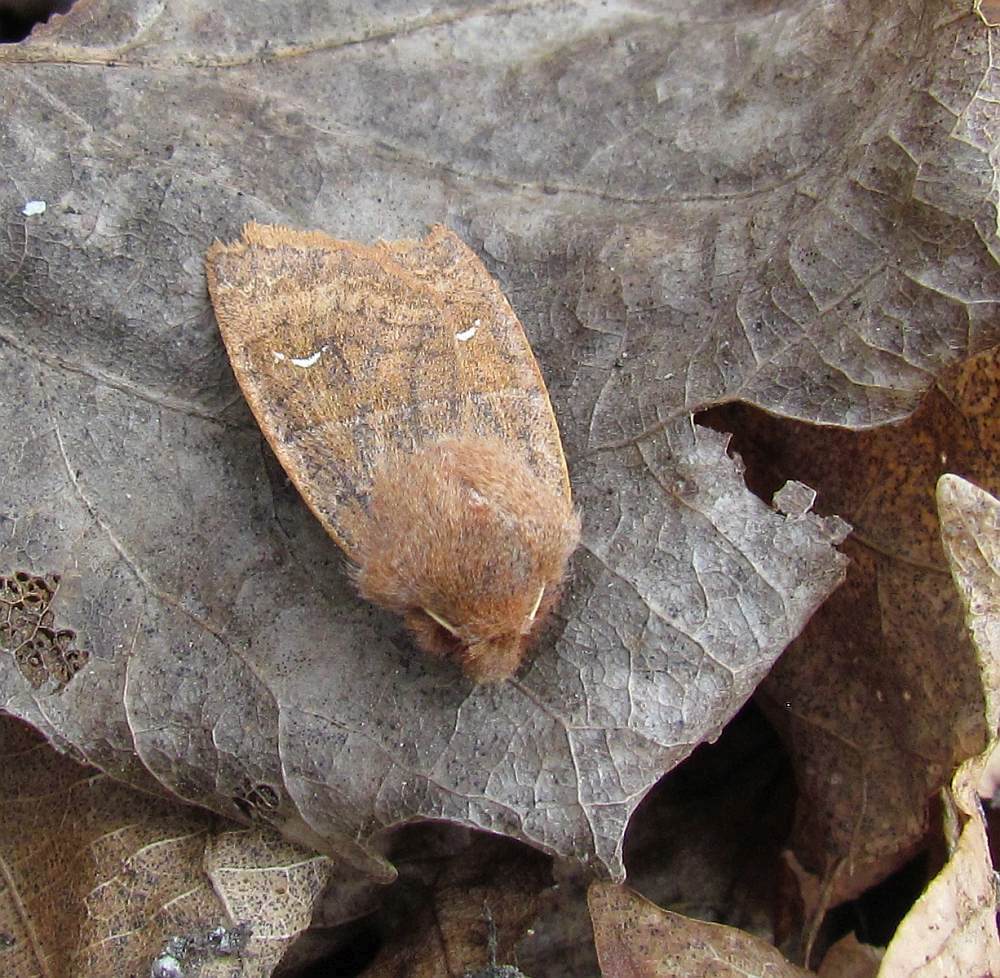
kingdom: Animalia
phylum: Arthropoda
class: Insecta
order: Lepidoptera
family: Noctuidae
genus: Eupsilia
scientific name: Eupsilia morrisoni
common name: Morrison's sallow
